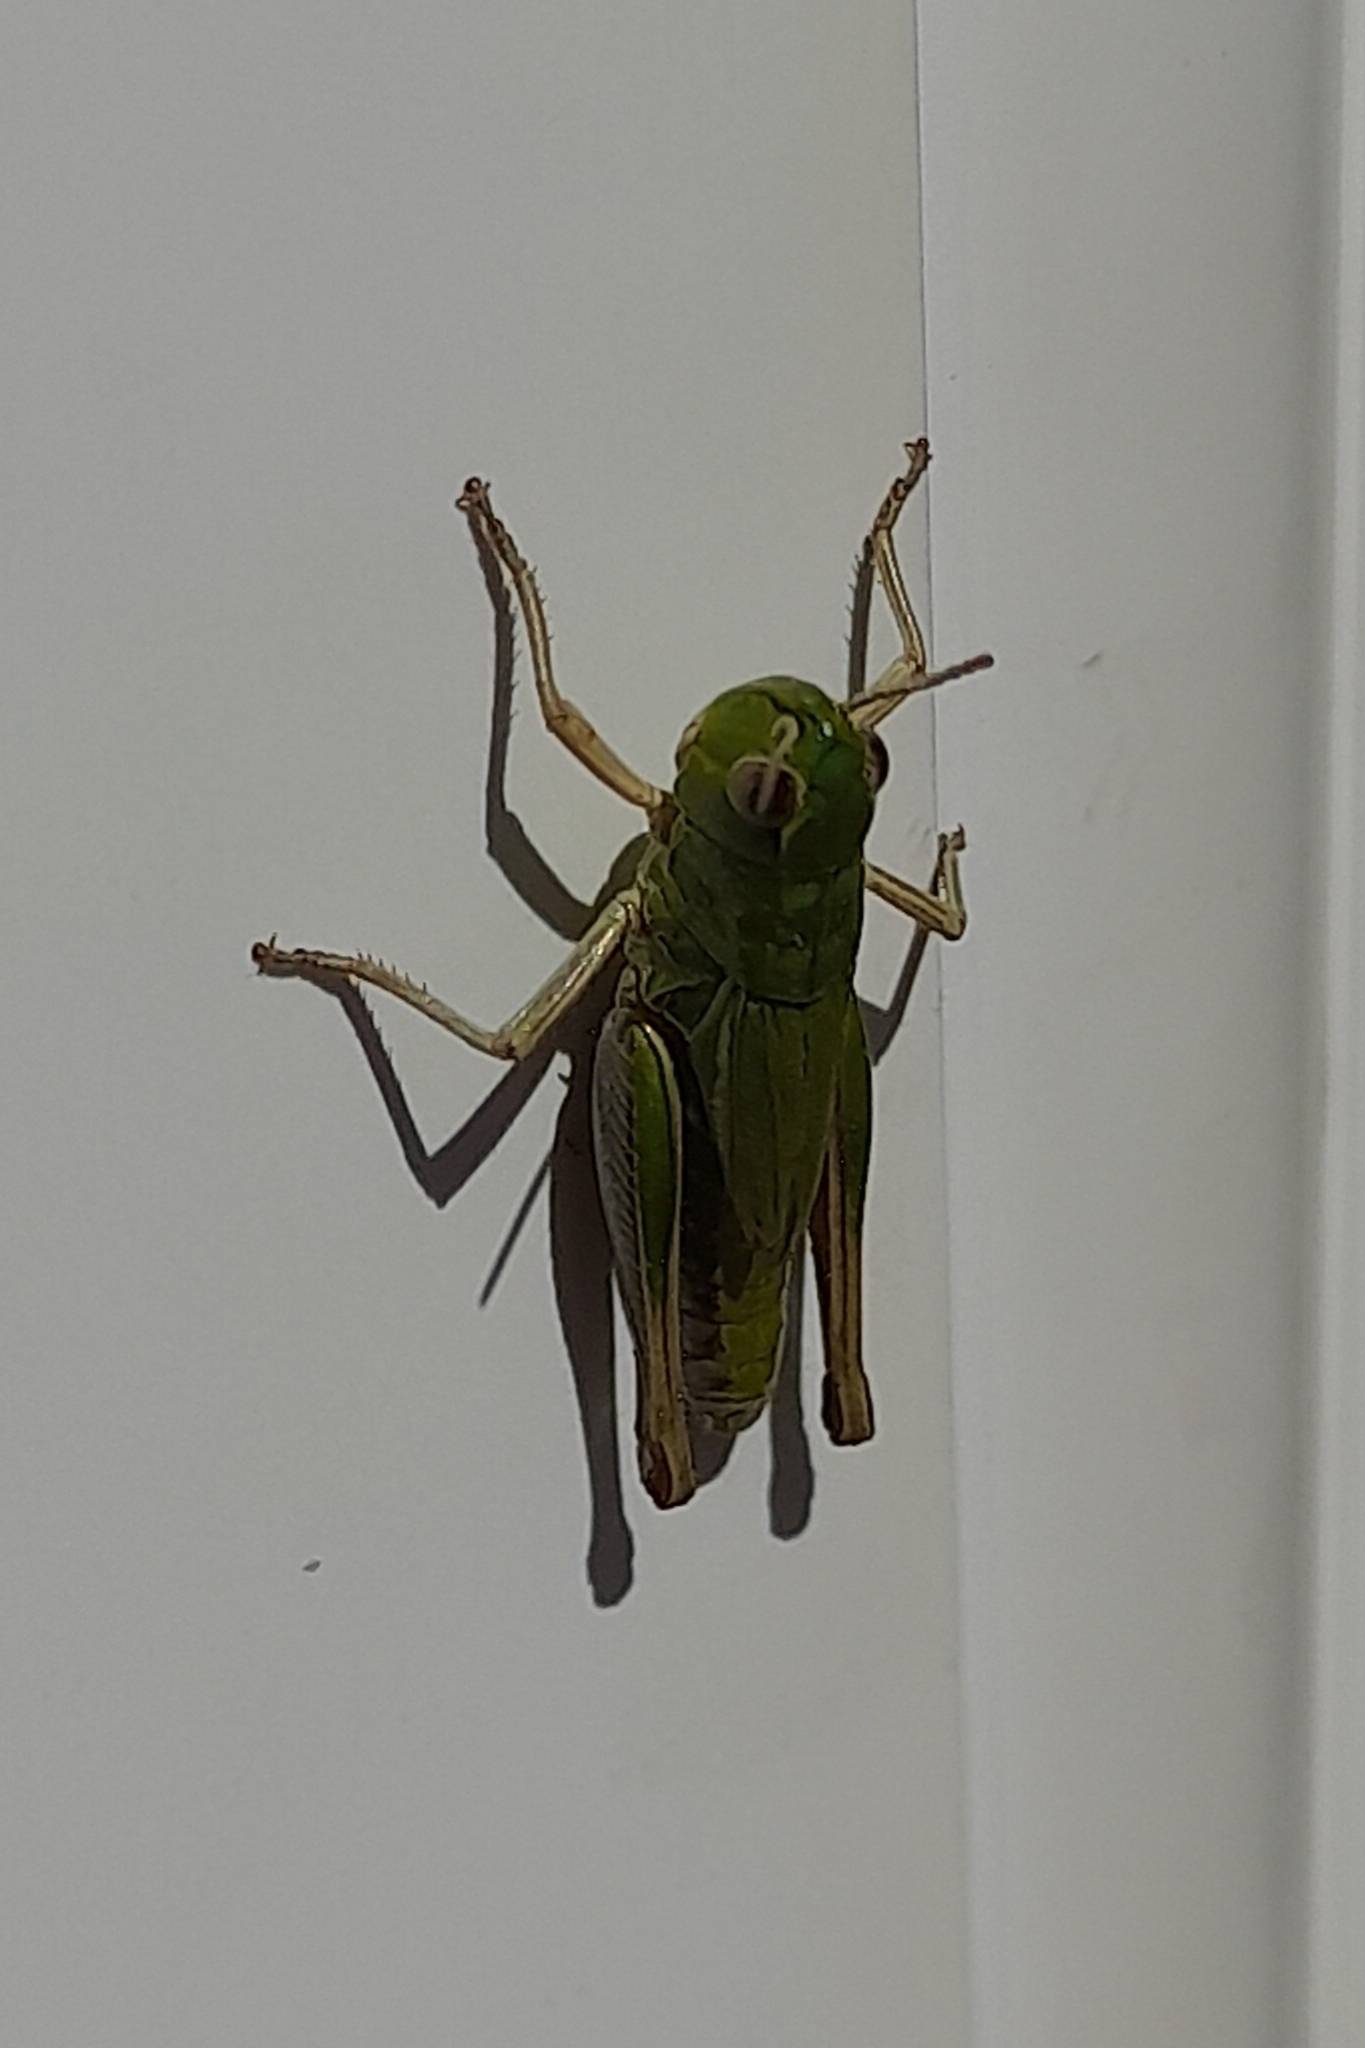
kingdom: Animalia
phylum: Arthropoda
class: Insecta
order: Orthoptera
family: Acrididae
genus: Pseudochorthippus
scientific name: Pseudochorthippus parallelus
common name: Meadow grasshopper
